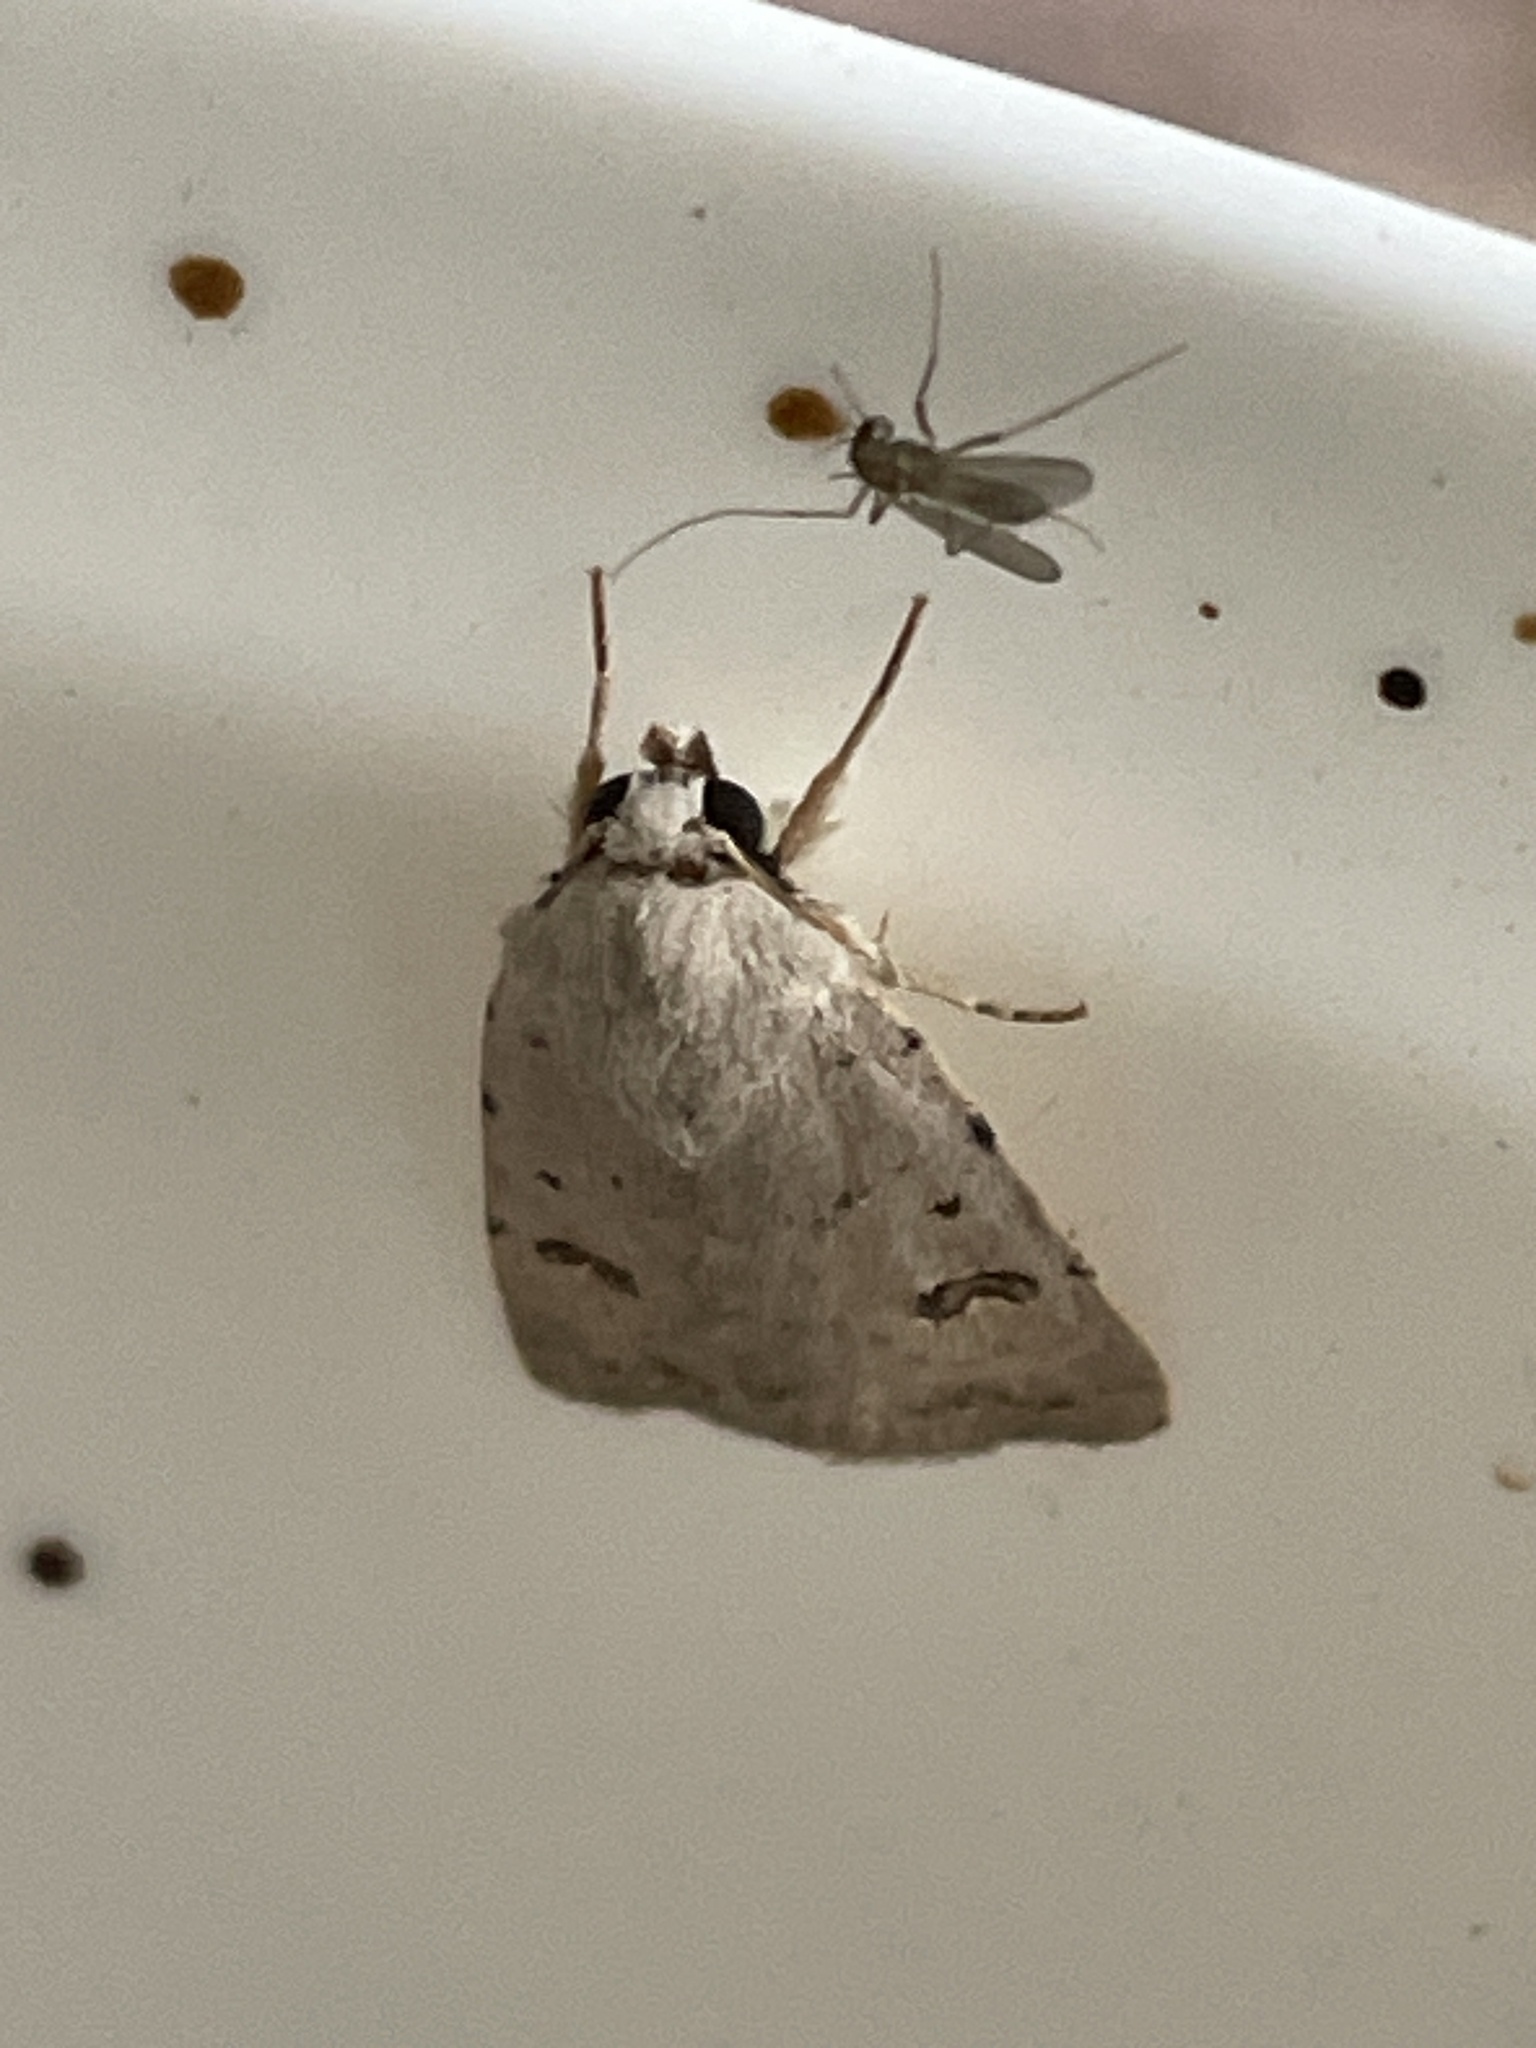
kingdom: Animalia
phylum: Arthropoda
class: Insecta
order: Lepidoptera
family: Noctuidae
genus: Caradrina
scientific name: Caradrina kadenii
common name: Clancy's rustic
